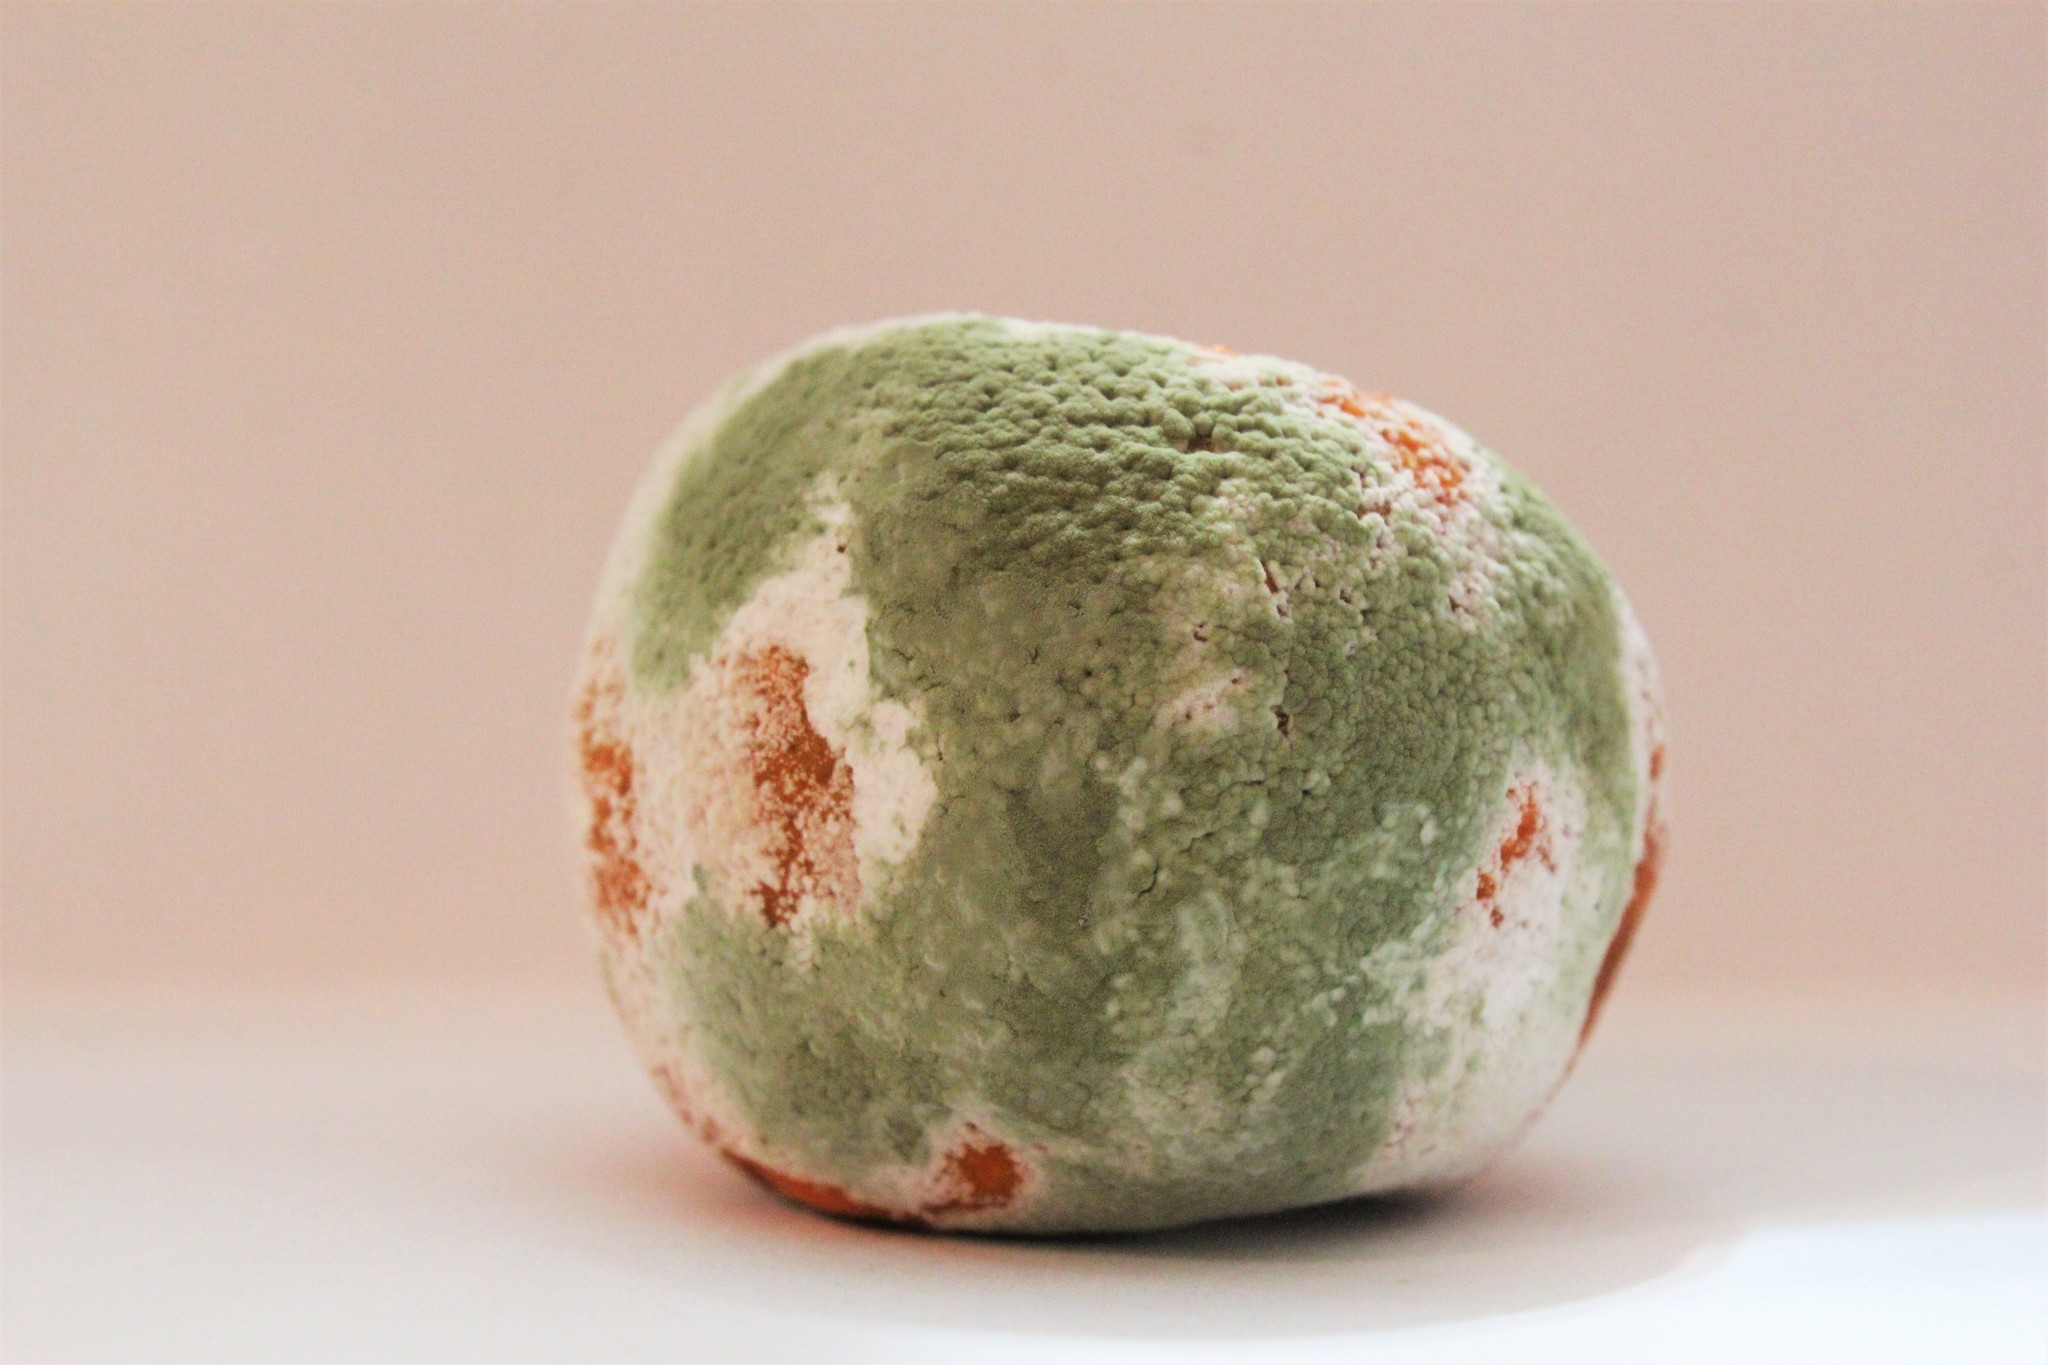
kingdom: Fungi
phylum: Ascomycota
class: Eurotiomycetes
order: Eurotiales
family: Aspergillaceae
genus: Penicillium
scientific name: Penicillium digitatum
